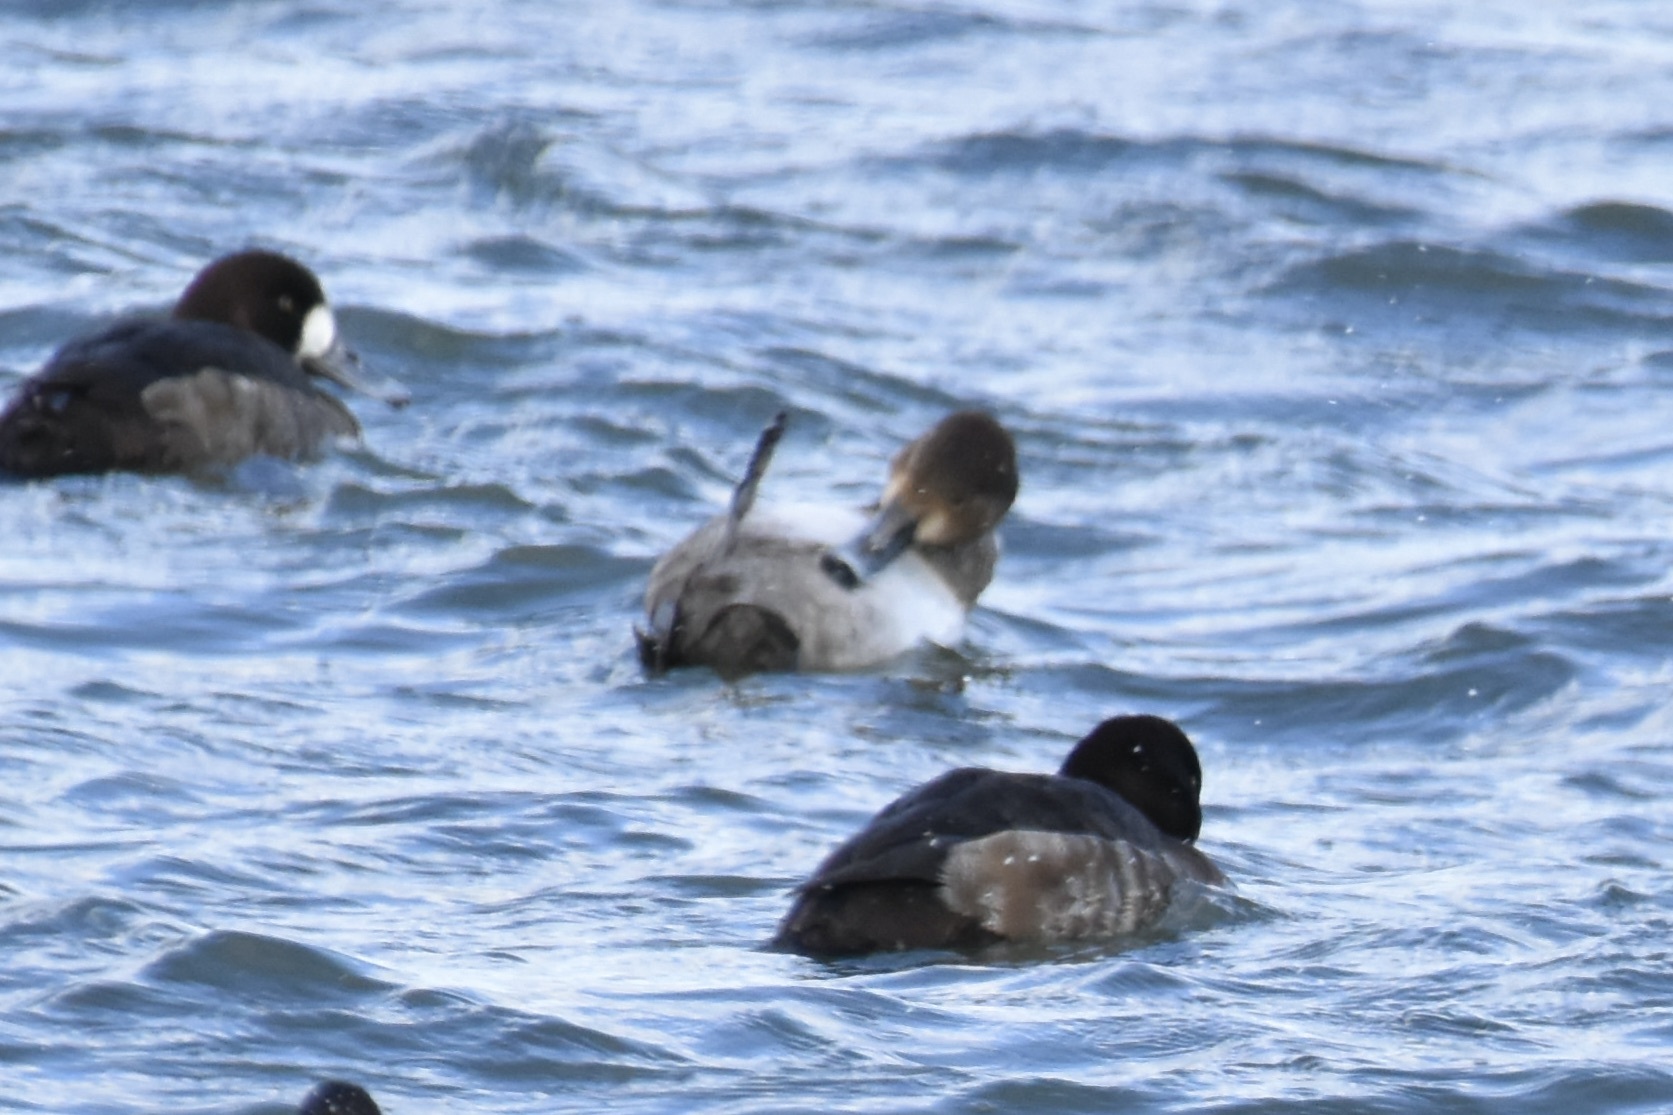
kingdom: Animalia
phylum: Chordata
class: Aves
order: Anseriformes
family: Anatidae
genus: Aythya
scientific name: Aythya americana
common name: Redhead
